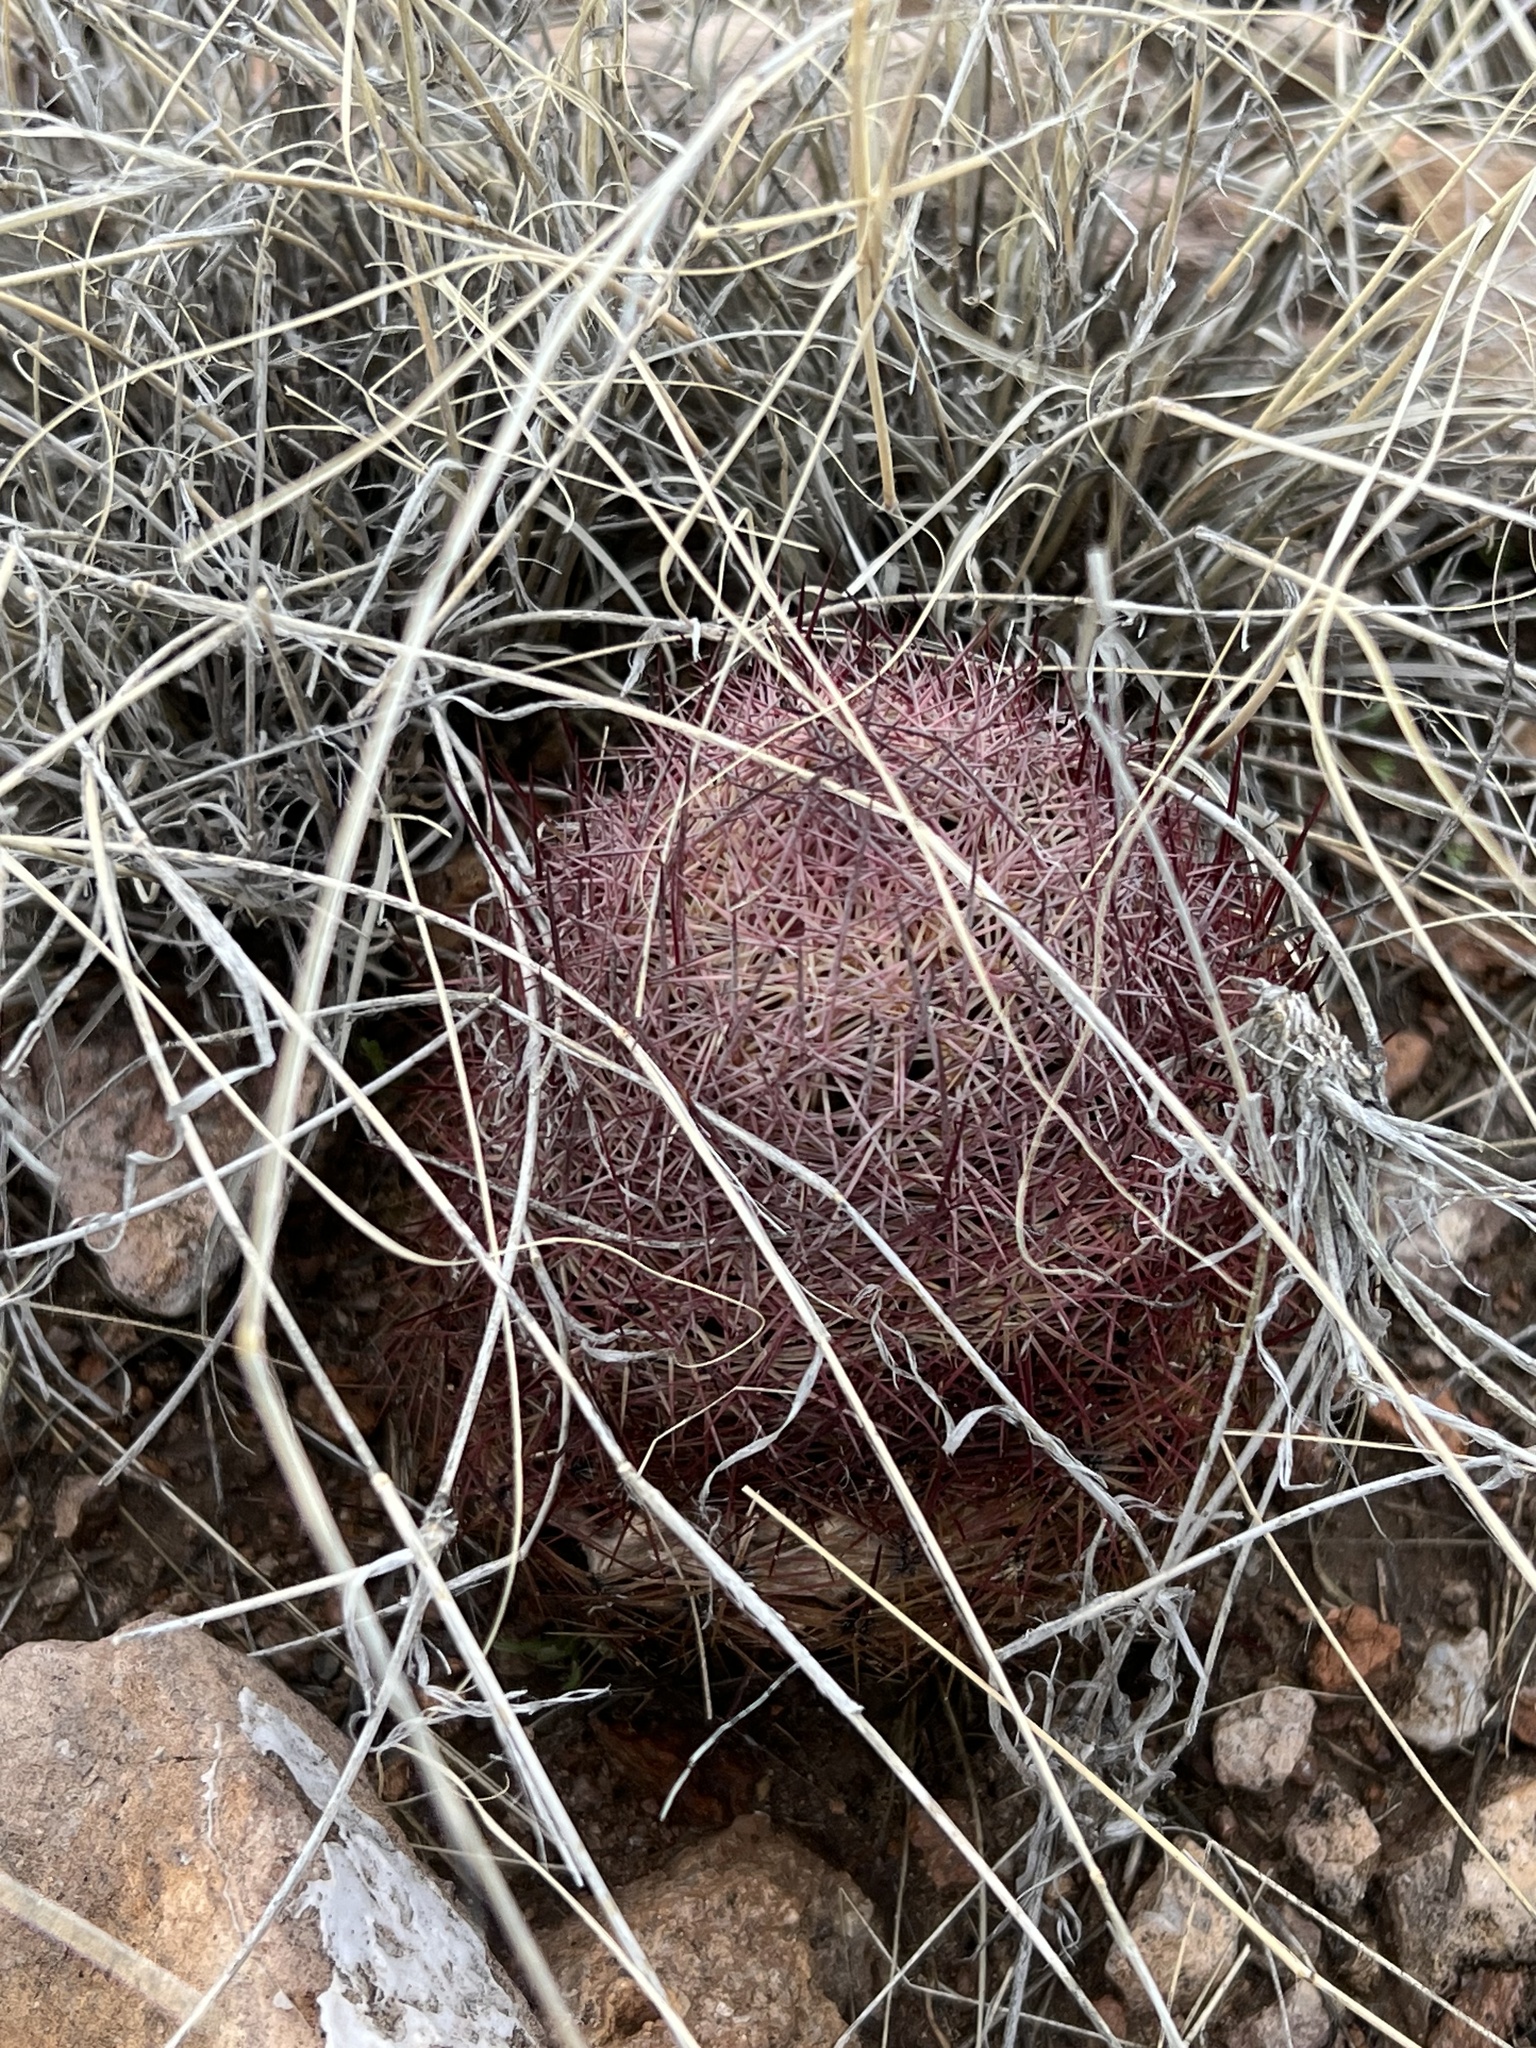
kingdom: Plantae
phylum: Tracheophyta
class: Magnoliopsida
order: Caryophyllales
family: Cactaceae
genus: Sclerocactus
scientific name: Sclerocactus johnsonii
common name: Eight-spine fishhook cactus
